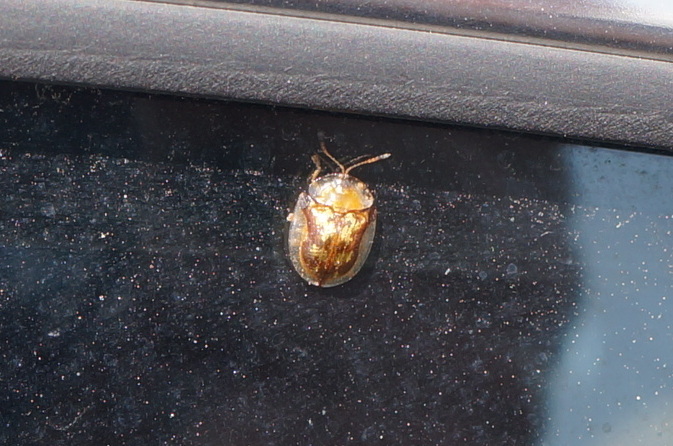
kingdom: Animalia
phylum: Arthropoda
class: Insecta
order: Coleoptera
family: Chrysomelidae
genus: Deloyala
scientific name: Deloyala guttata
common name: Mottled tortoise beetle
